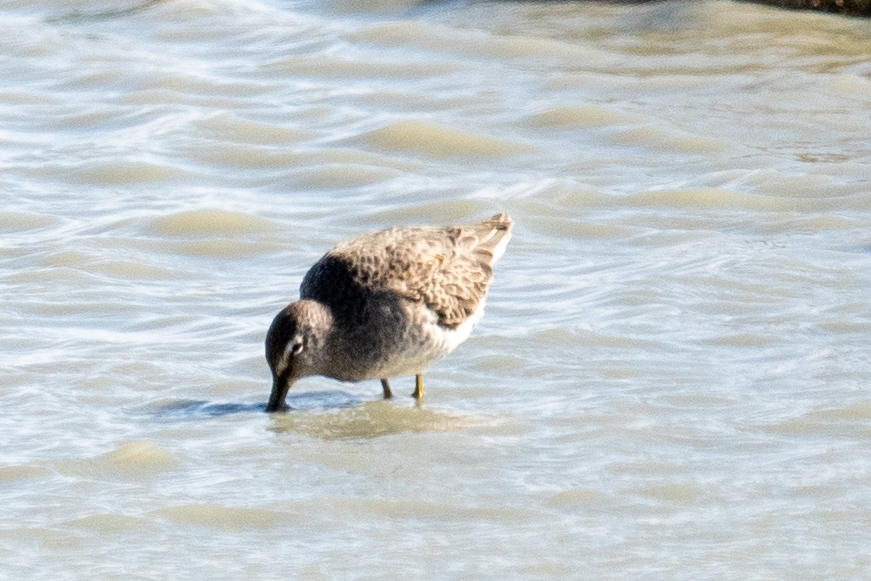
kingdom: Animalia
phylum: Chordata
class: Aves
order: Charadriiformes
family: Scolopacidae
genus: Limnodromus
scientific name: Limnodromus scolopaceus
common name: Long-billed dowitcher
